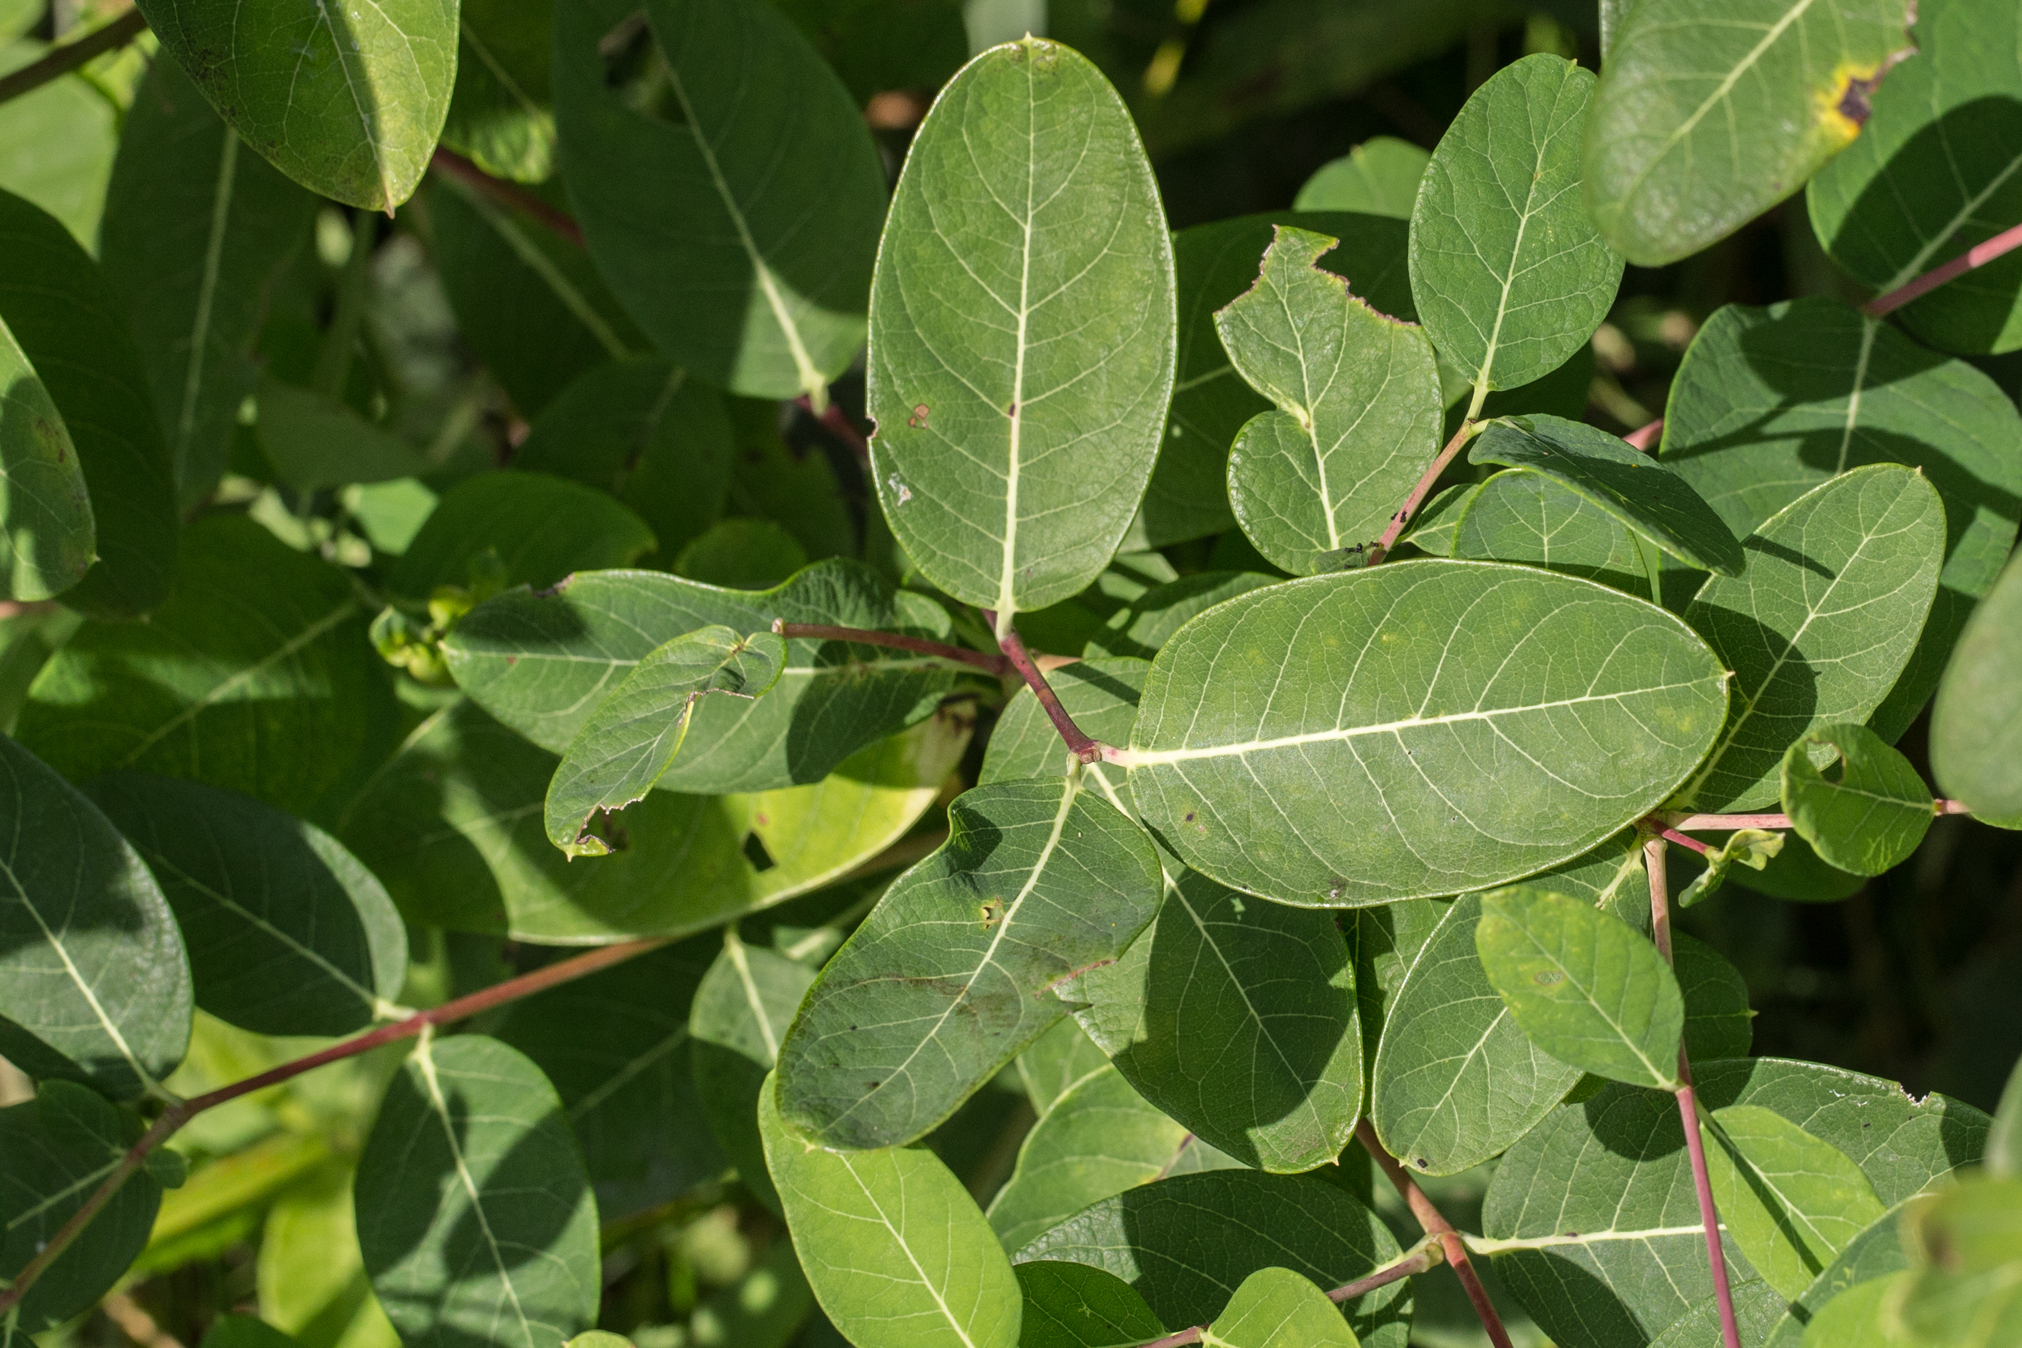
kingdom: Plantae
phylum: Tracheophyta
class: Magnoliopsida
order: Gentianales
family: Apocynaceae
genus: Apocynum
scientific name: Apocynum cannabinum
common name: Hemp dogbane
